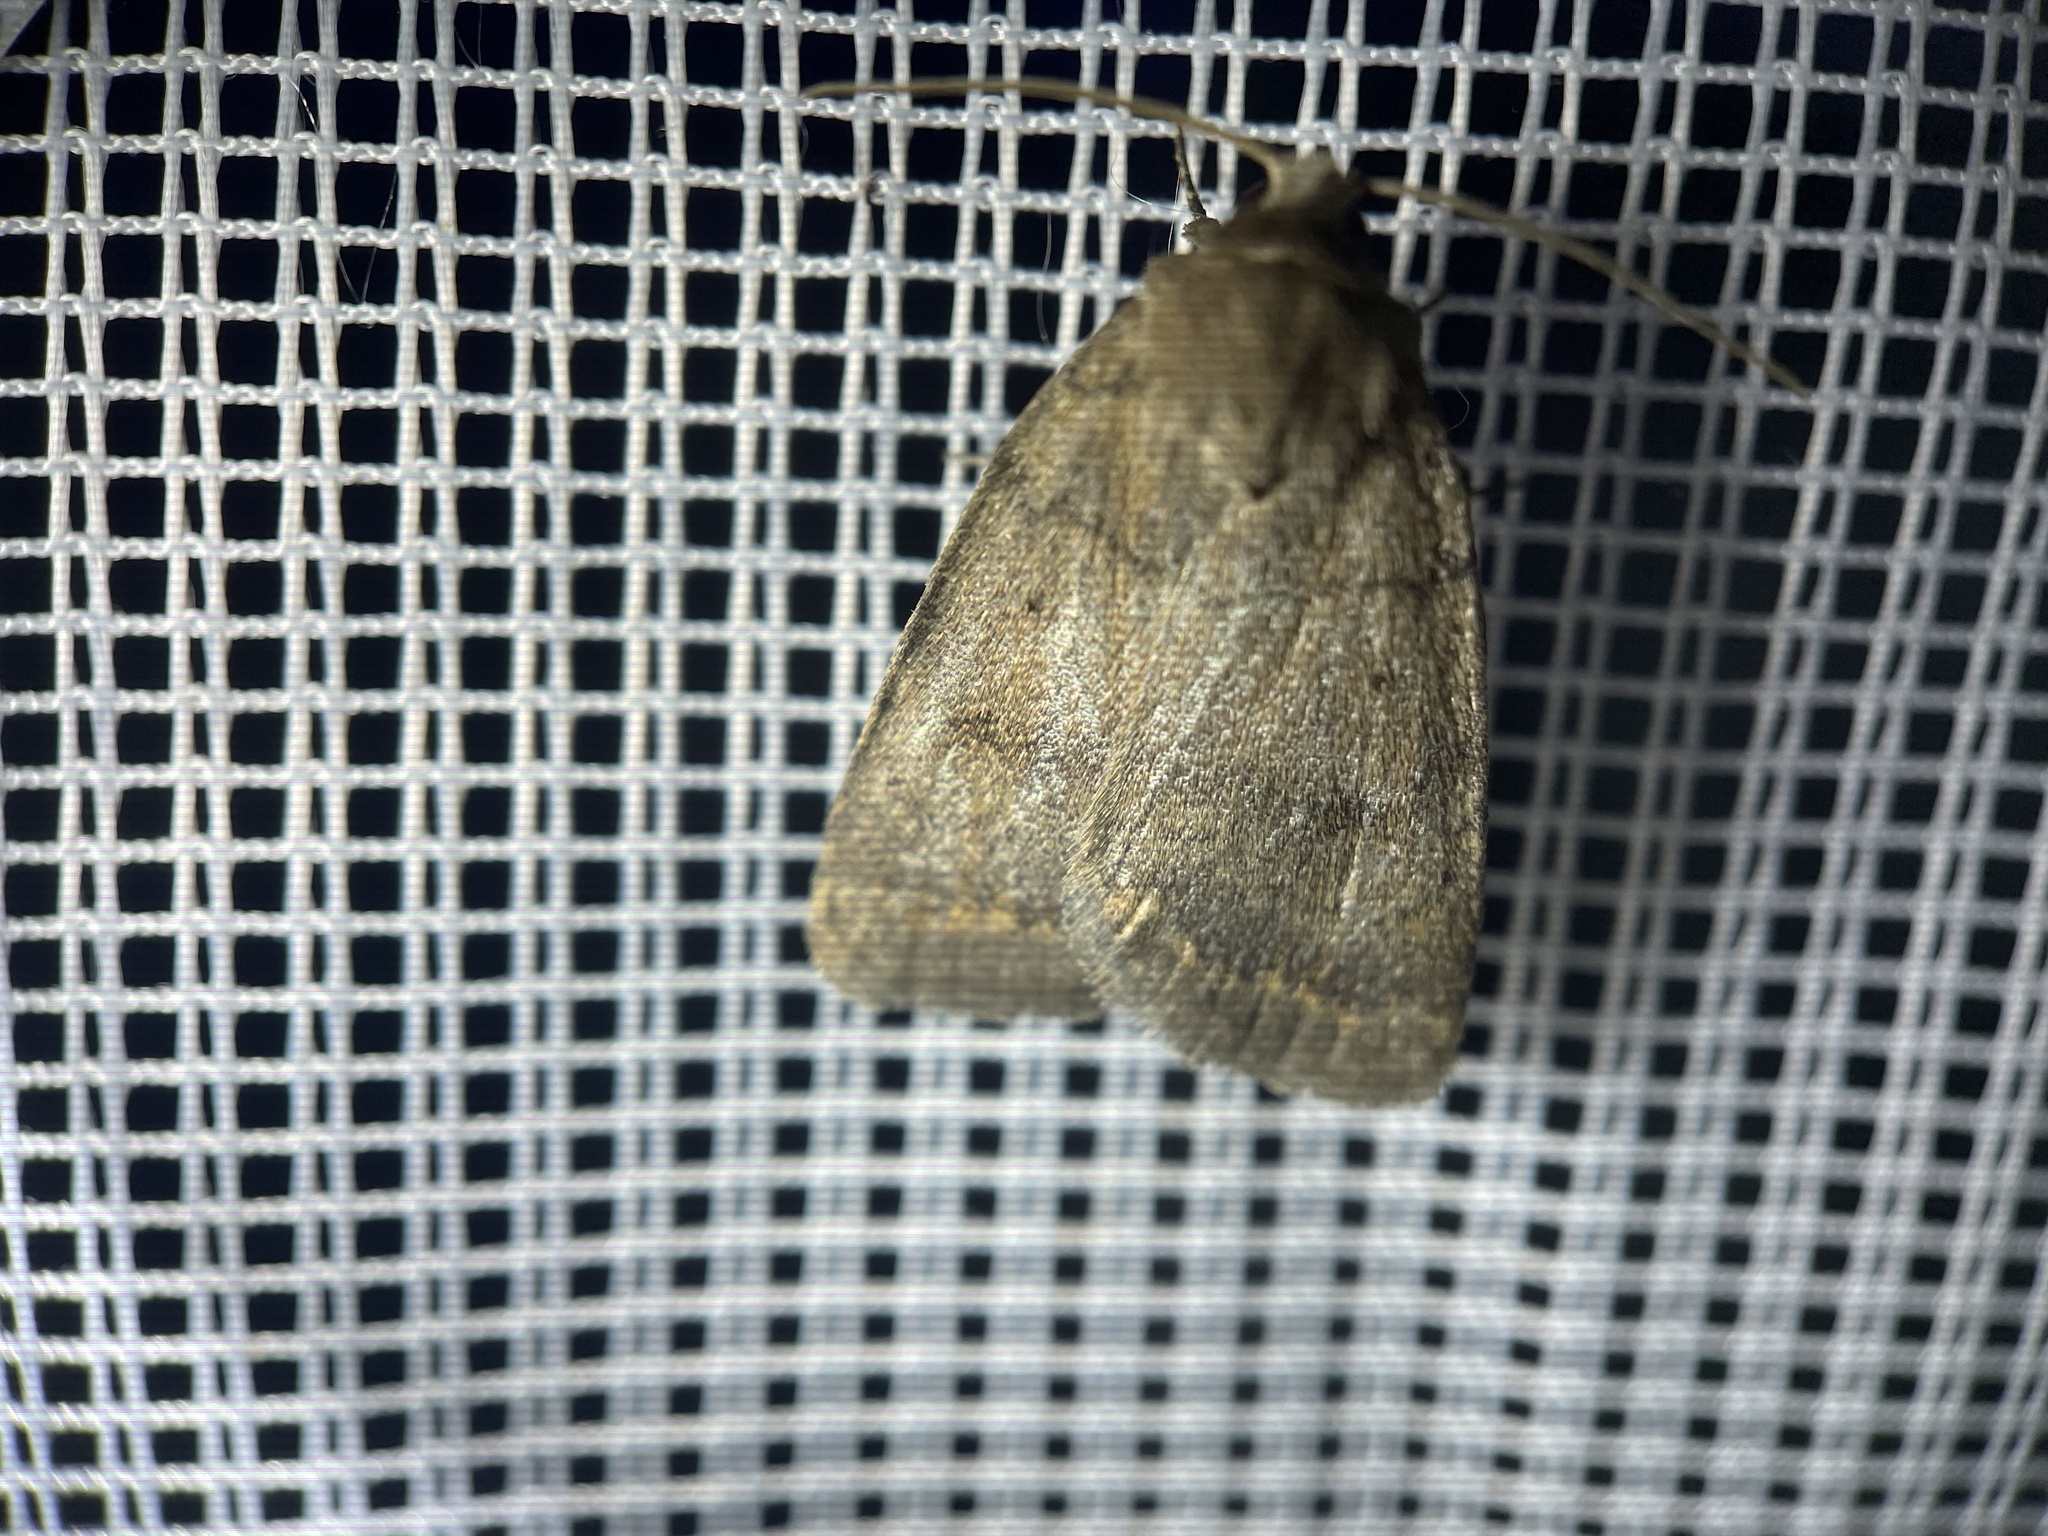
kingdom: Animalia
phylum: Arthropoda
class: Insecta
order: Lepidoptera
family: Noctuidae
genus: Athetis
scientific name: Athetis tarda
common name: Slowpoke moth
